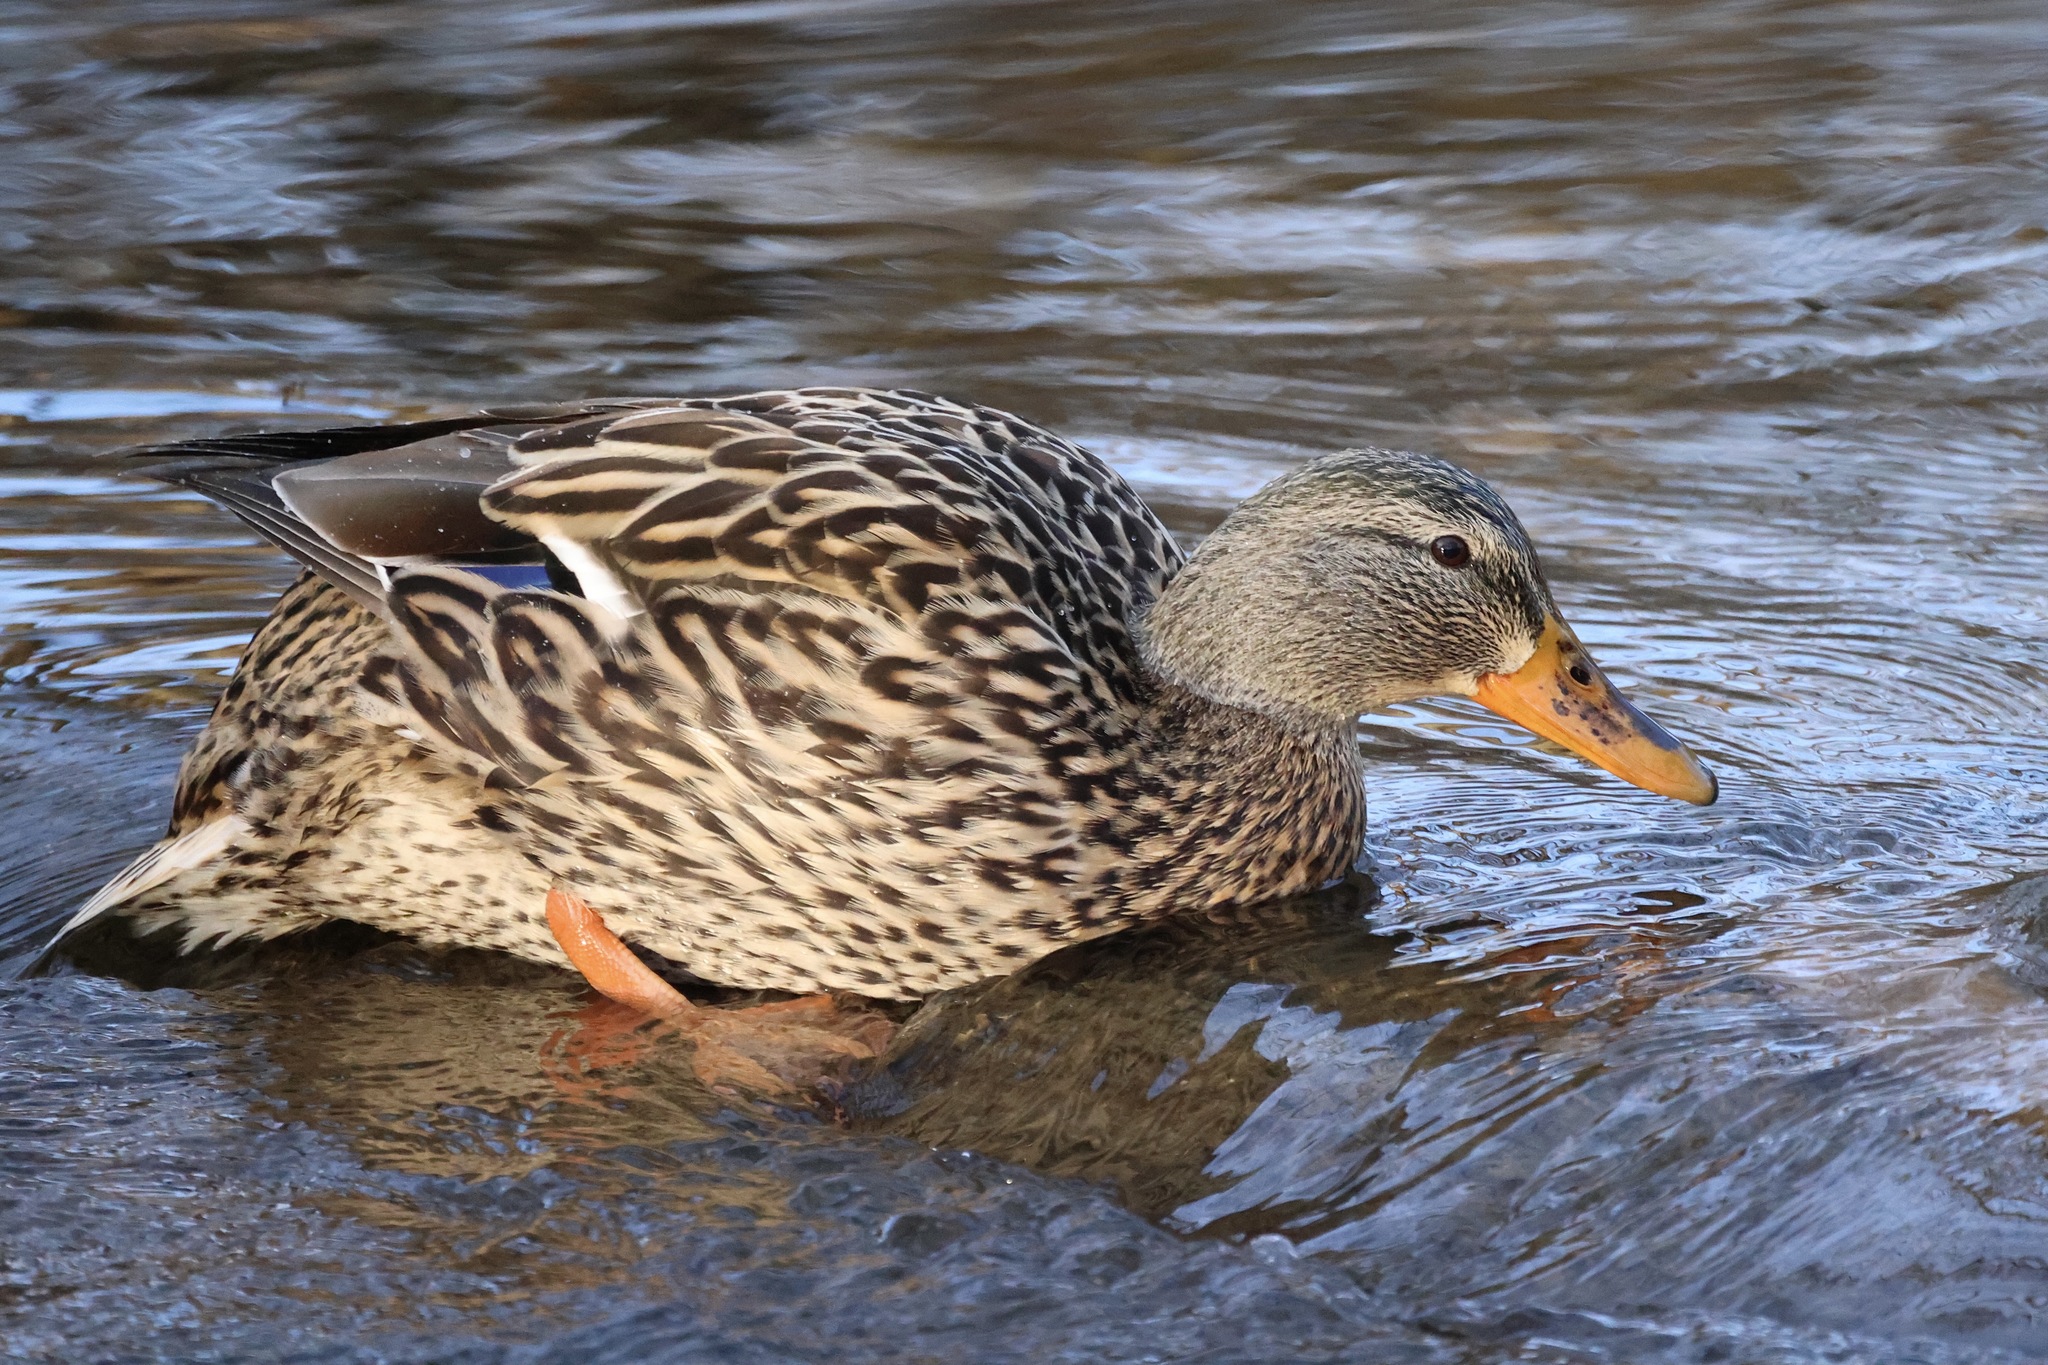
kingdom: Animalia
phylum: Chordata
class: Aves
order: Anseriformes
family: Anatidae
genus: Anas
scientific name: Anas platyrhynchos
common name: Mallard
